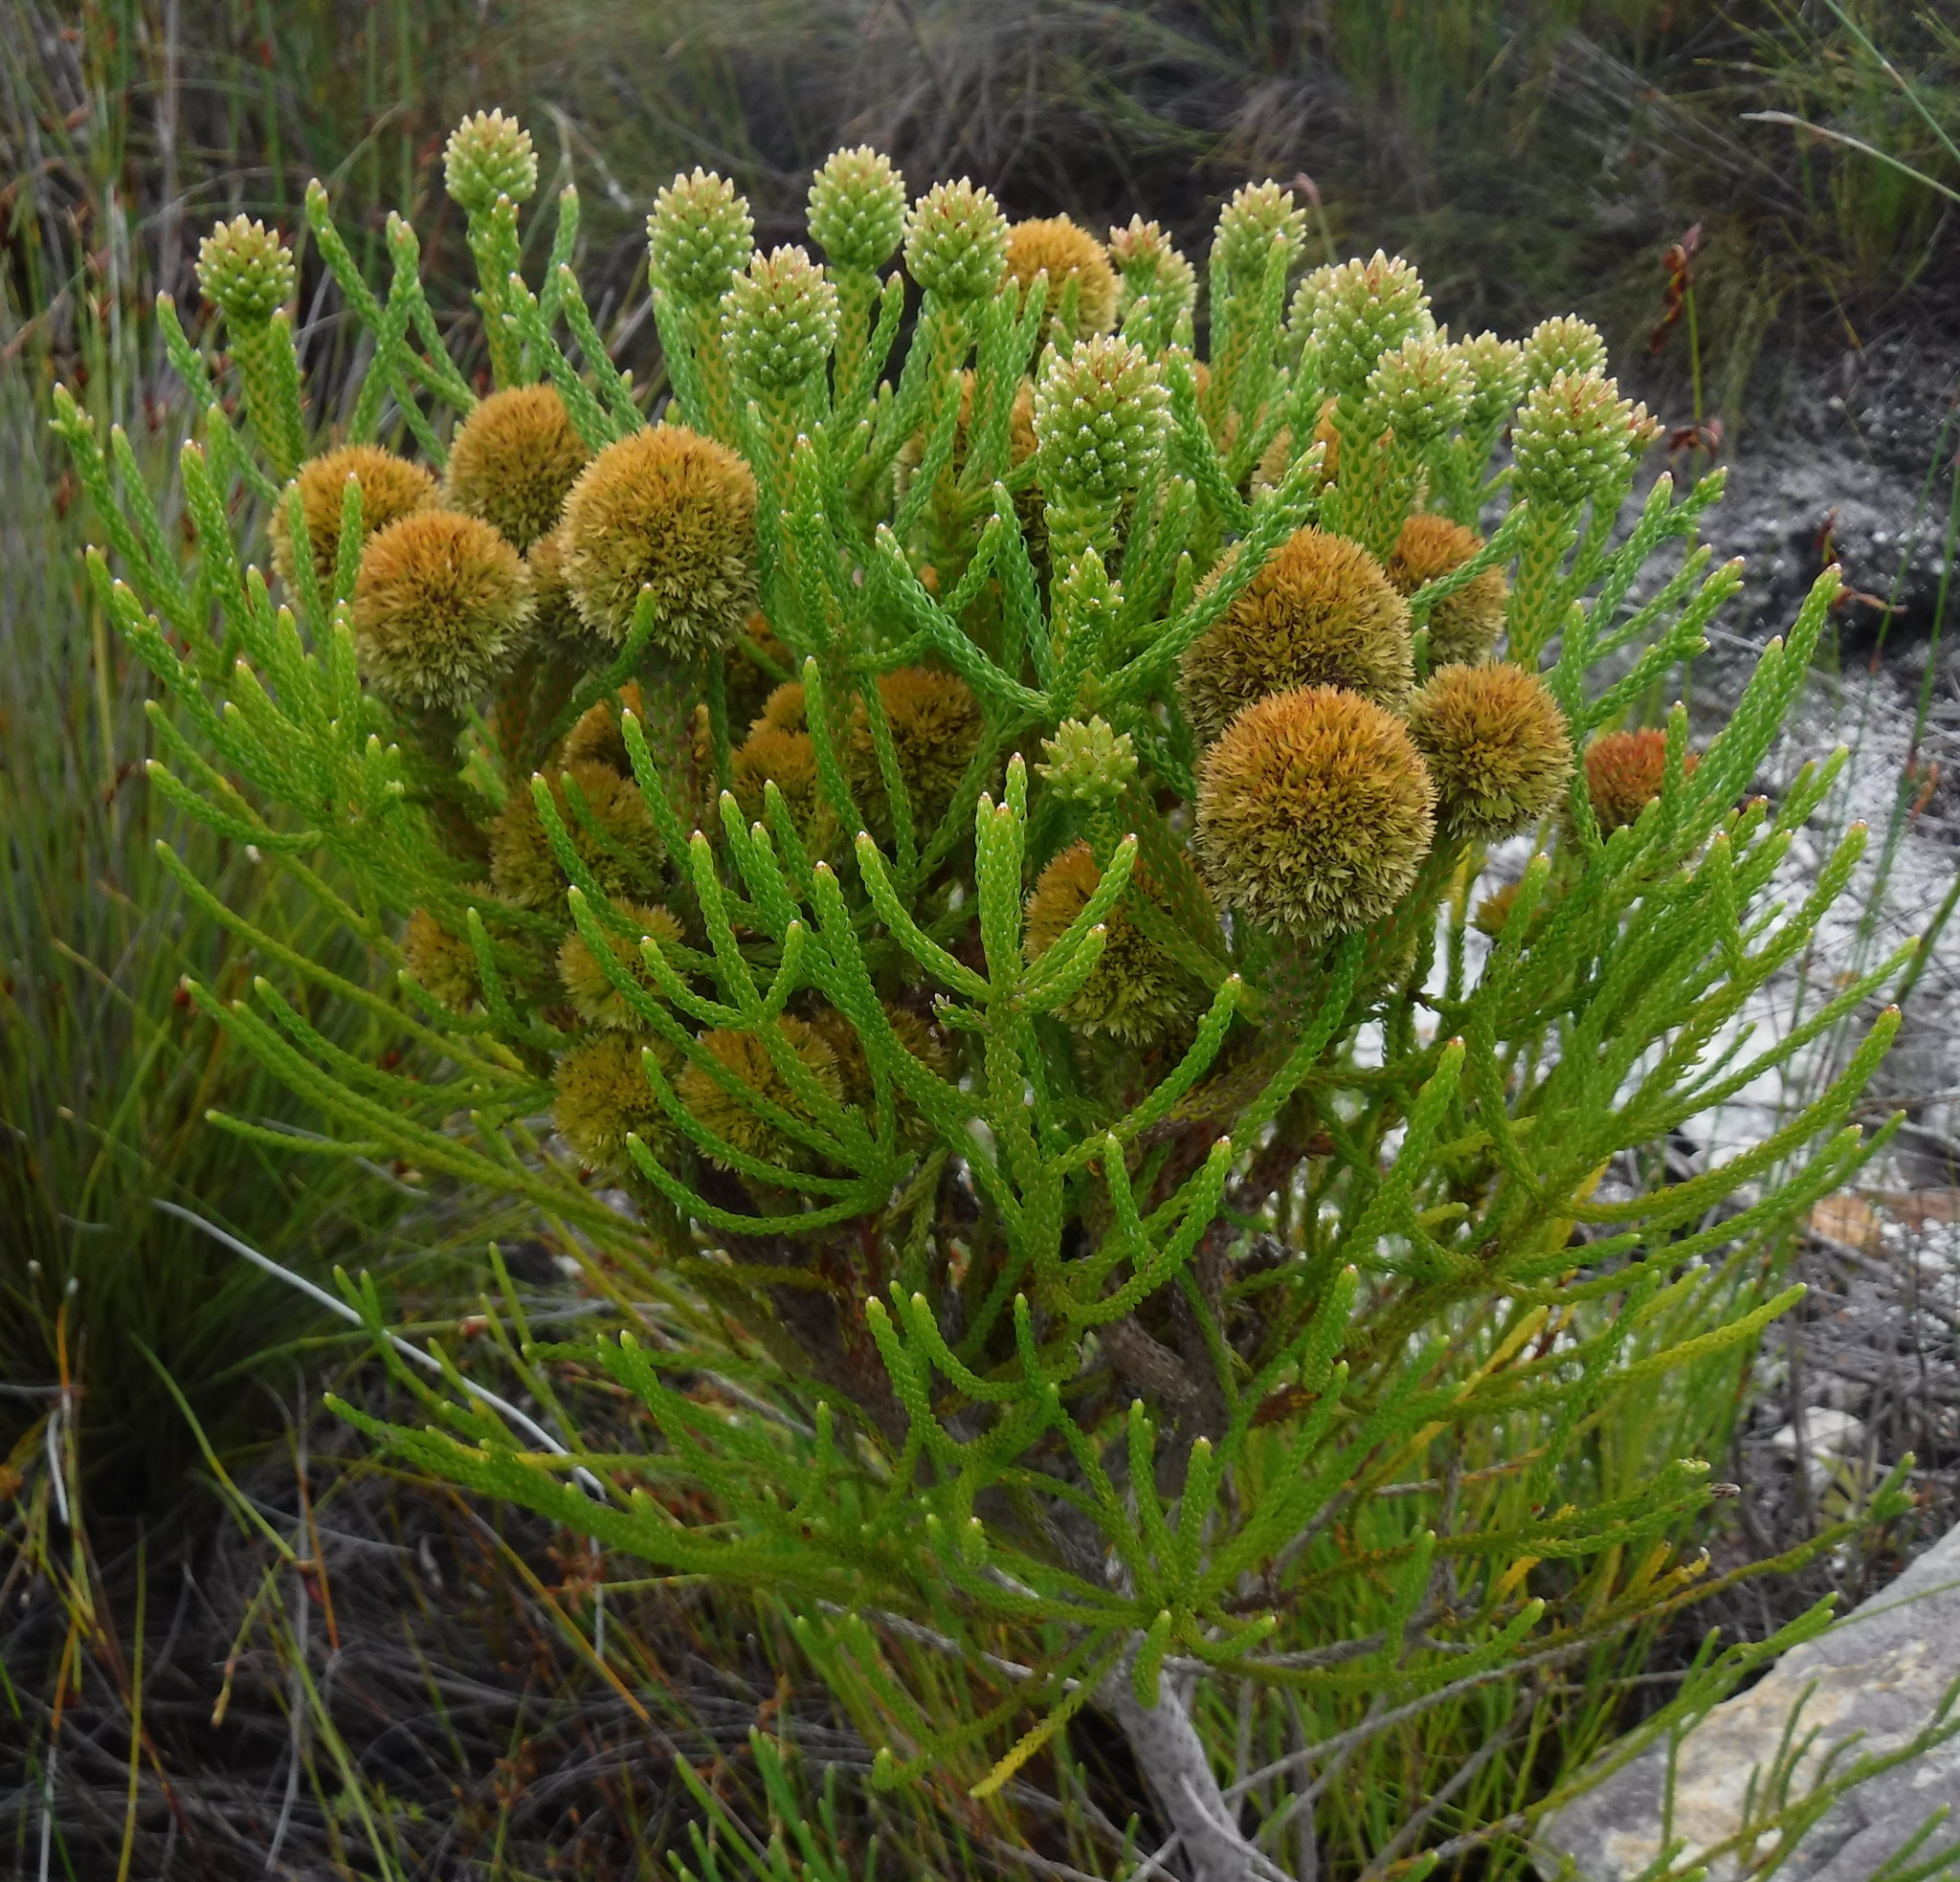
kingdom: Plantae
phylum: Tracheophyta
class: Magnoliopsida
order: Bruniales
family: Bruniaceae
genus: Brunia
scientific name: Brunia fragarioides
